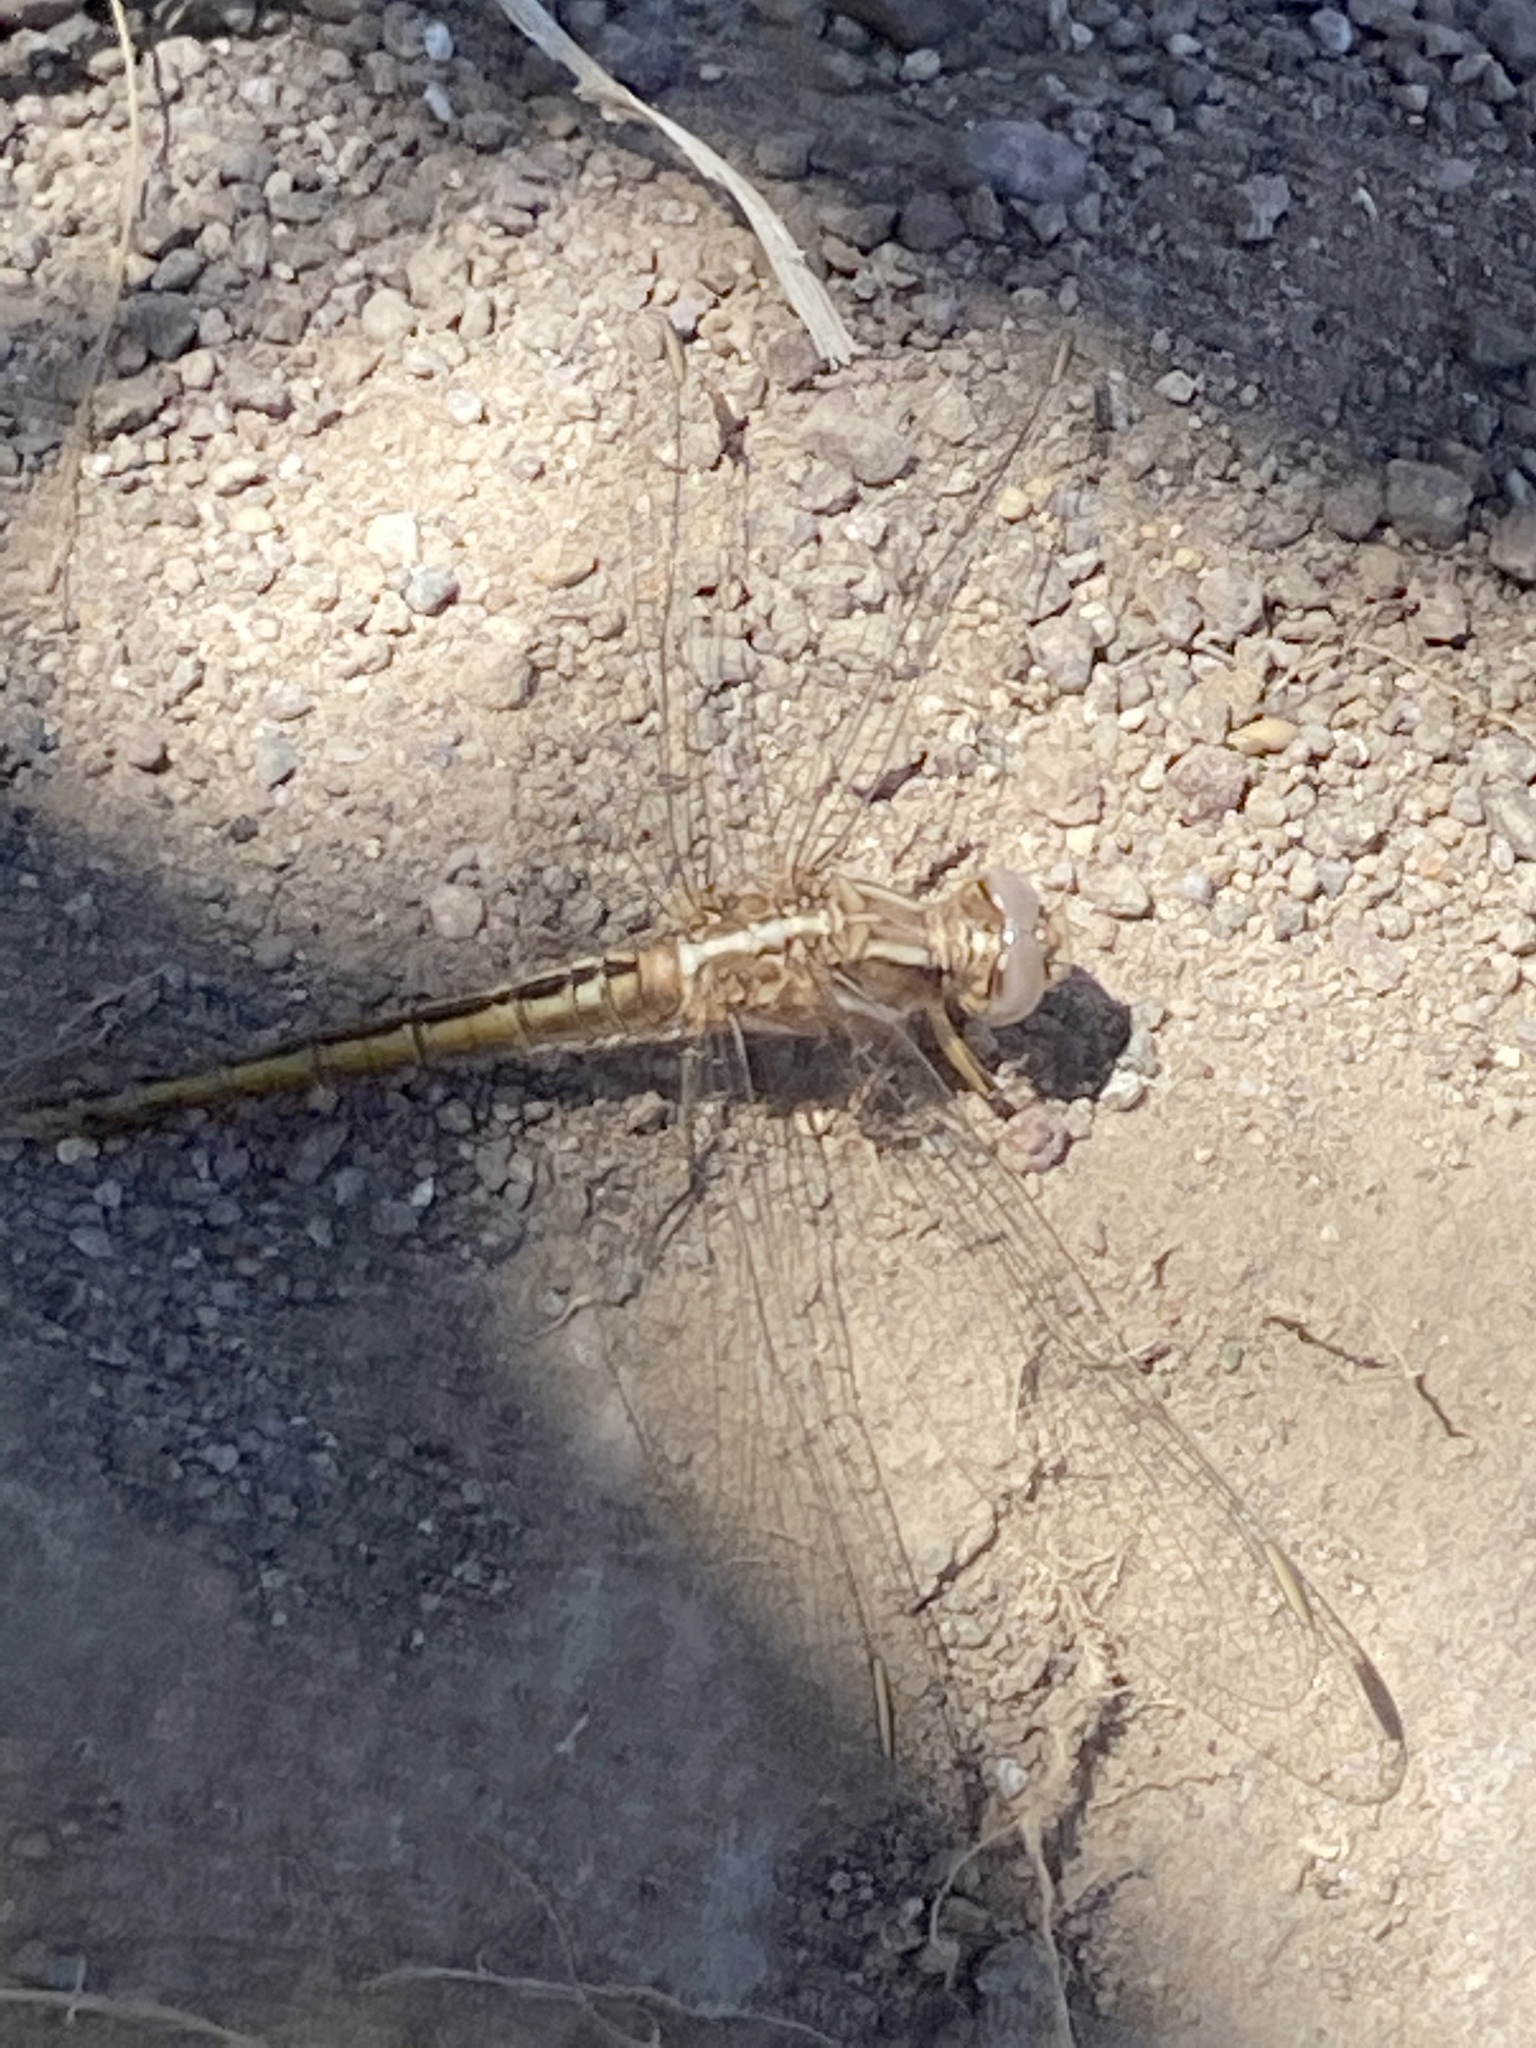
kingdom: Animalia
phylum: Arthropoda
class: Insecta
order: Odonata
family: Libellulidae
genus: Orthetrum
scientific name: Orthetrum taeniolatum
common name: Small skimmer
